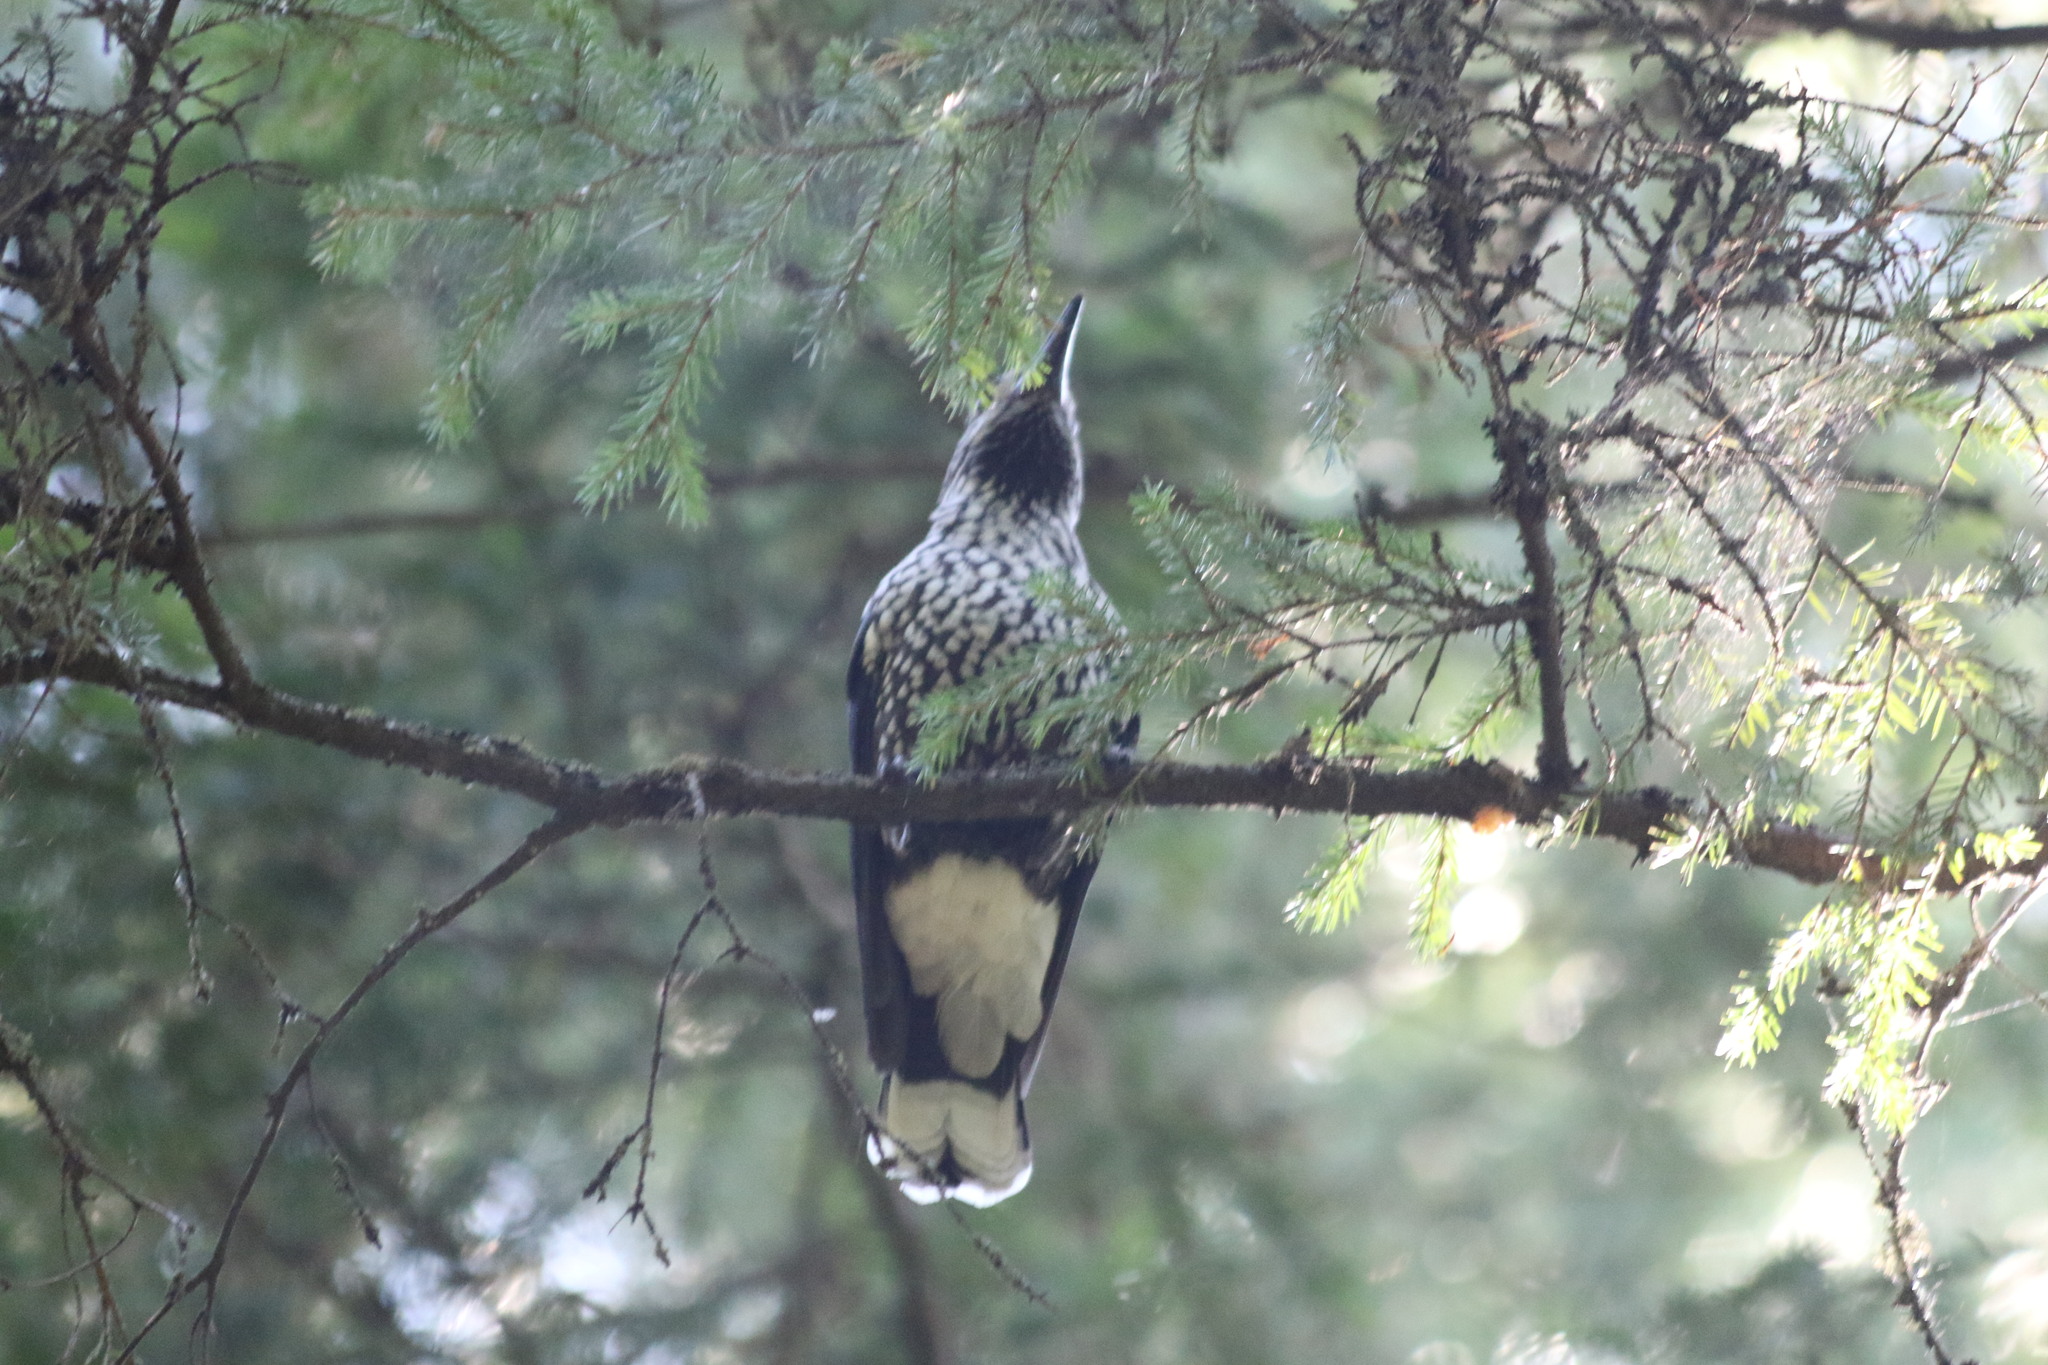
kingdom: Animalia
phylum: Chordata
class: Aves
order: Passeriformes
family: Corvidae
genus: Nucifraga
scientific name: Nucifraga caryocatactes
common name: Spotted nutcracker
